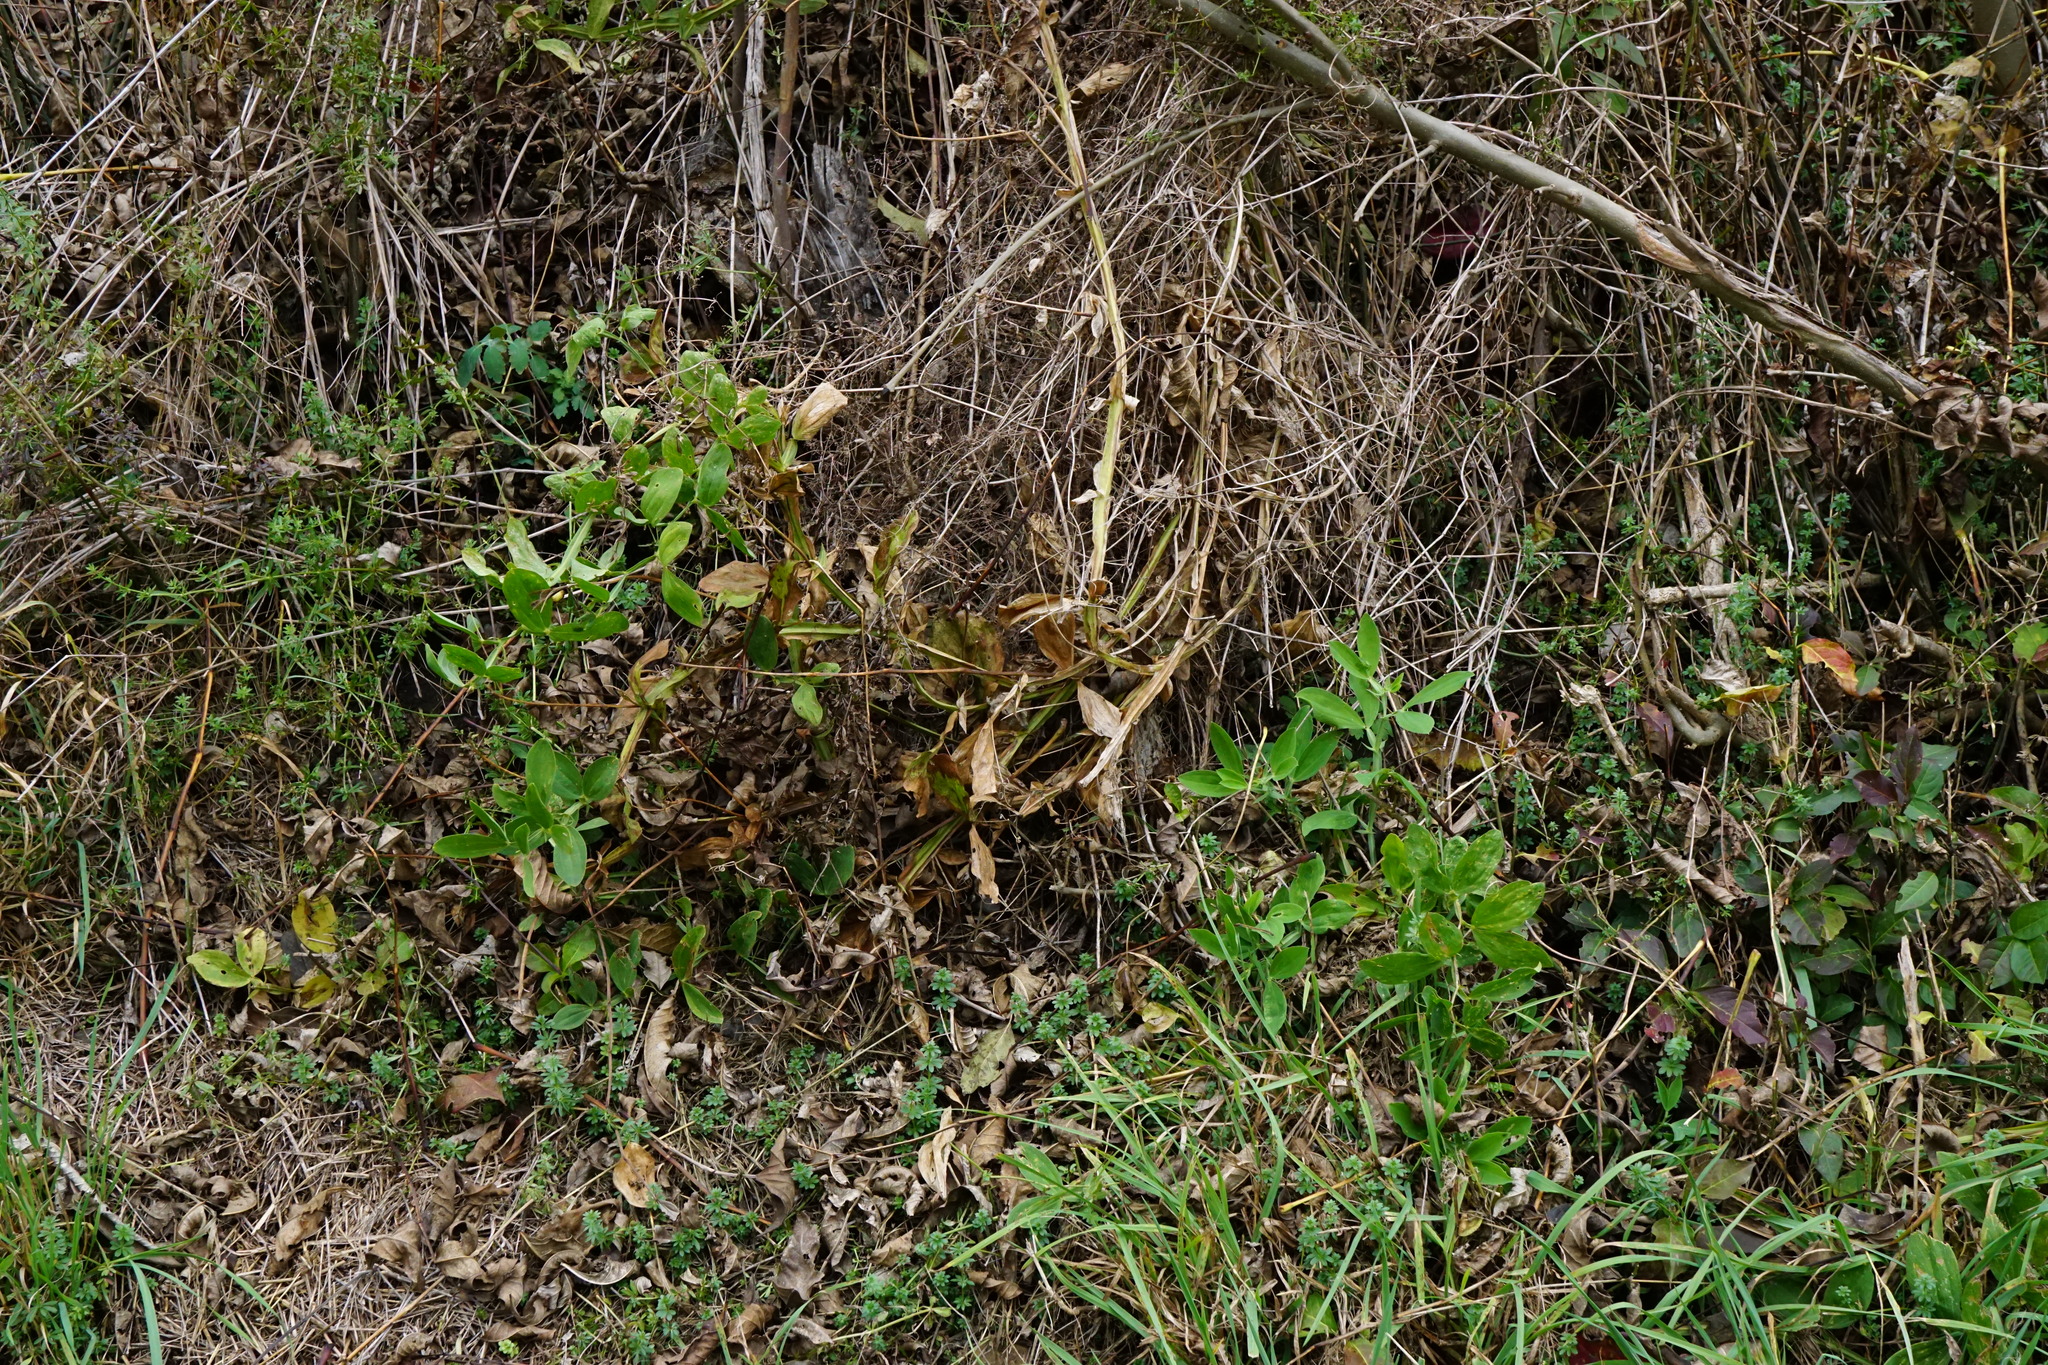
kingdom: Plantae
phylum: Tracheophyta
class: Magnoliopsida
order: Fabales
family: Fabaceae
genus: Lathyrus
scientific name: Lathyrus latifolius
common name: Perennial pea
